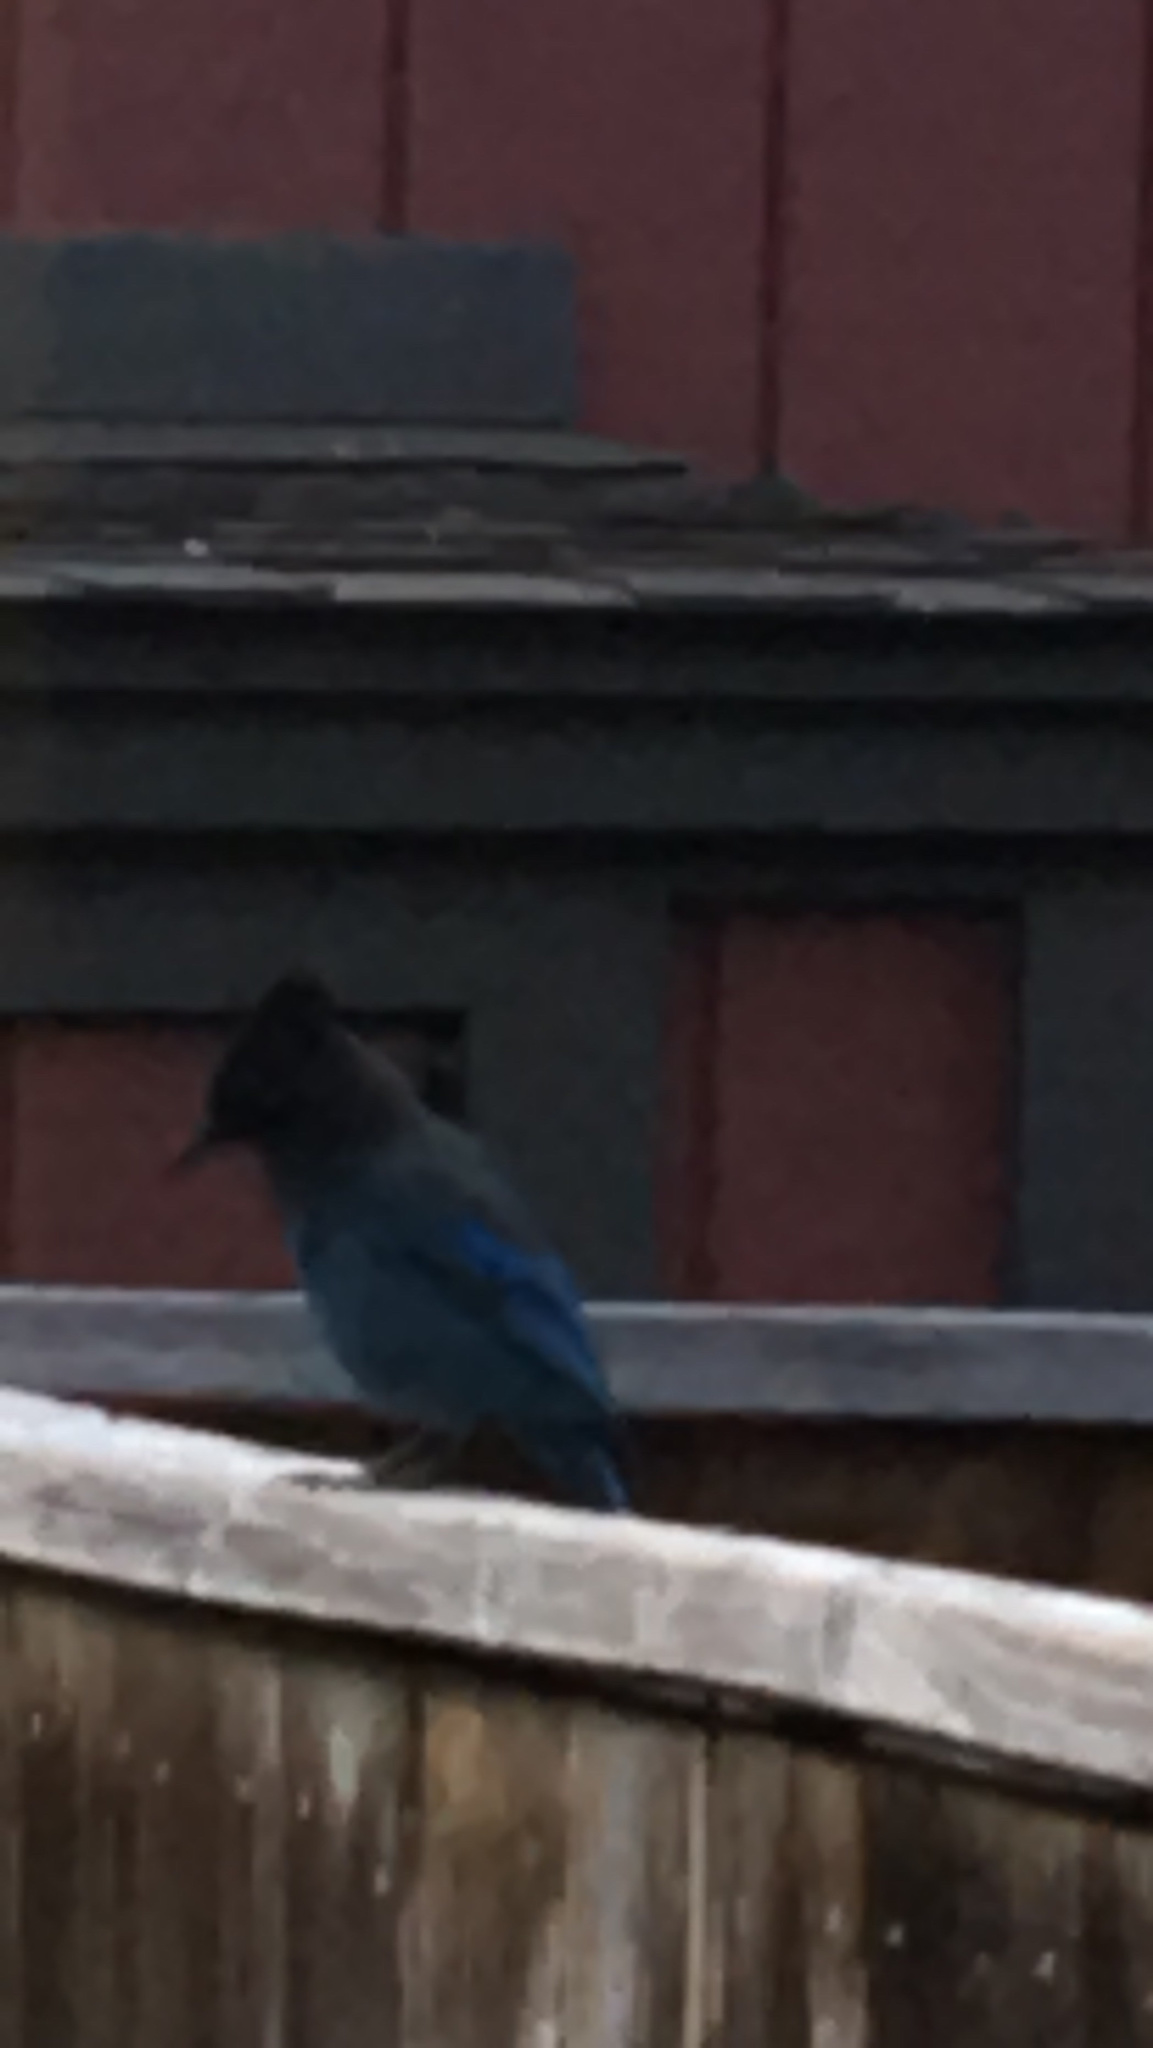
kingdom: Animalia
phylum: Chordata
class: Aves
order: Passeriformes
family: Corvidae
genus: Cyanocitta
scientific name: Cyanocitta stelleri
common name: Steller's jay
